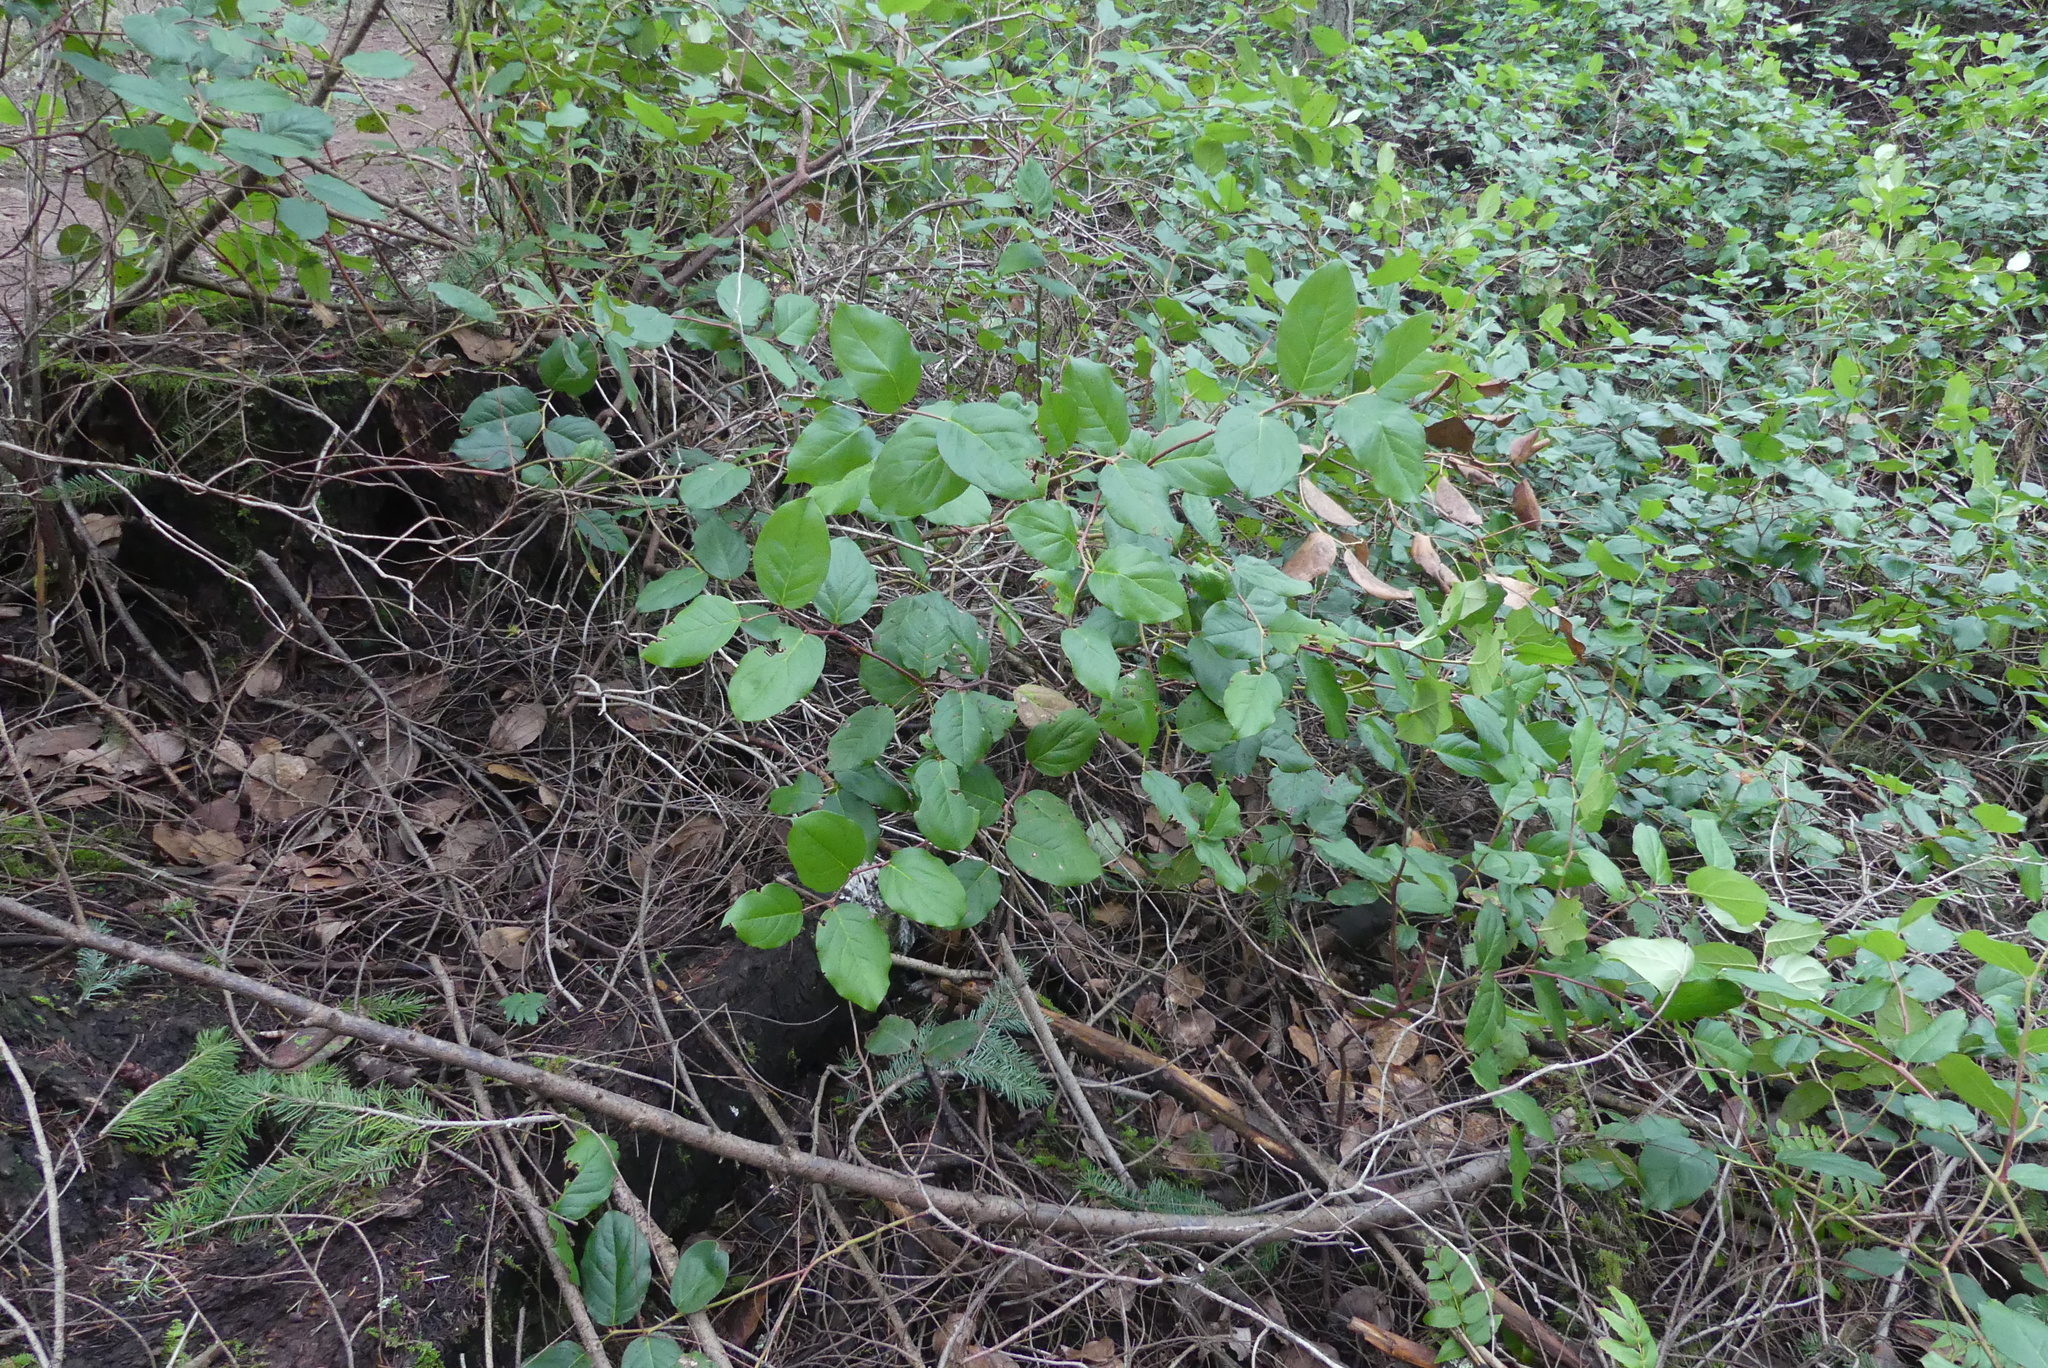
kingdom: Plantae
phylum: Tracheophyta
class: Magnoliopsida
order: Ericales
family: Ericaceae
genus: Gaultheria
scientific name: Gaultheria shallon
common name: Shallon
